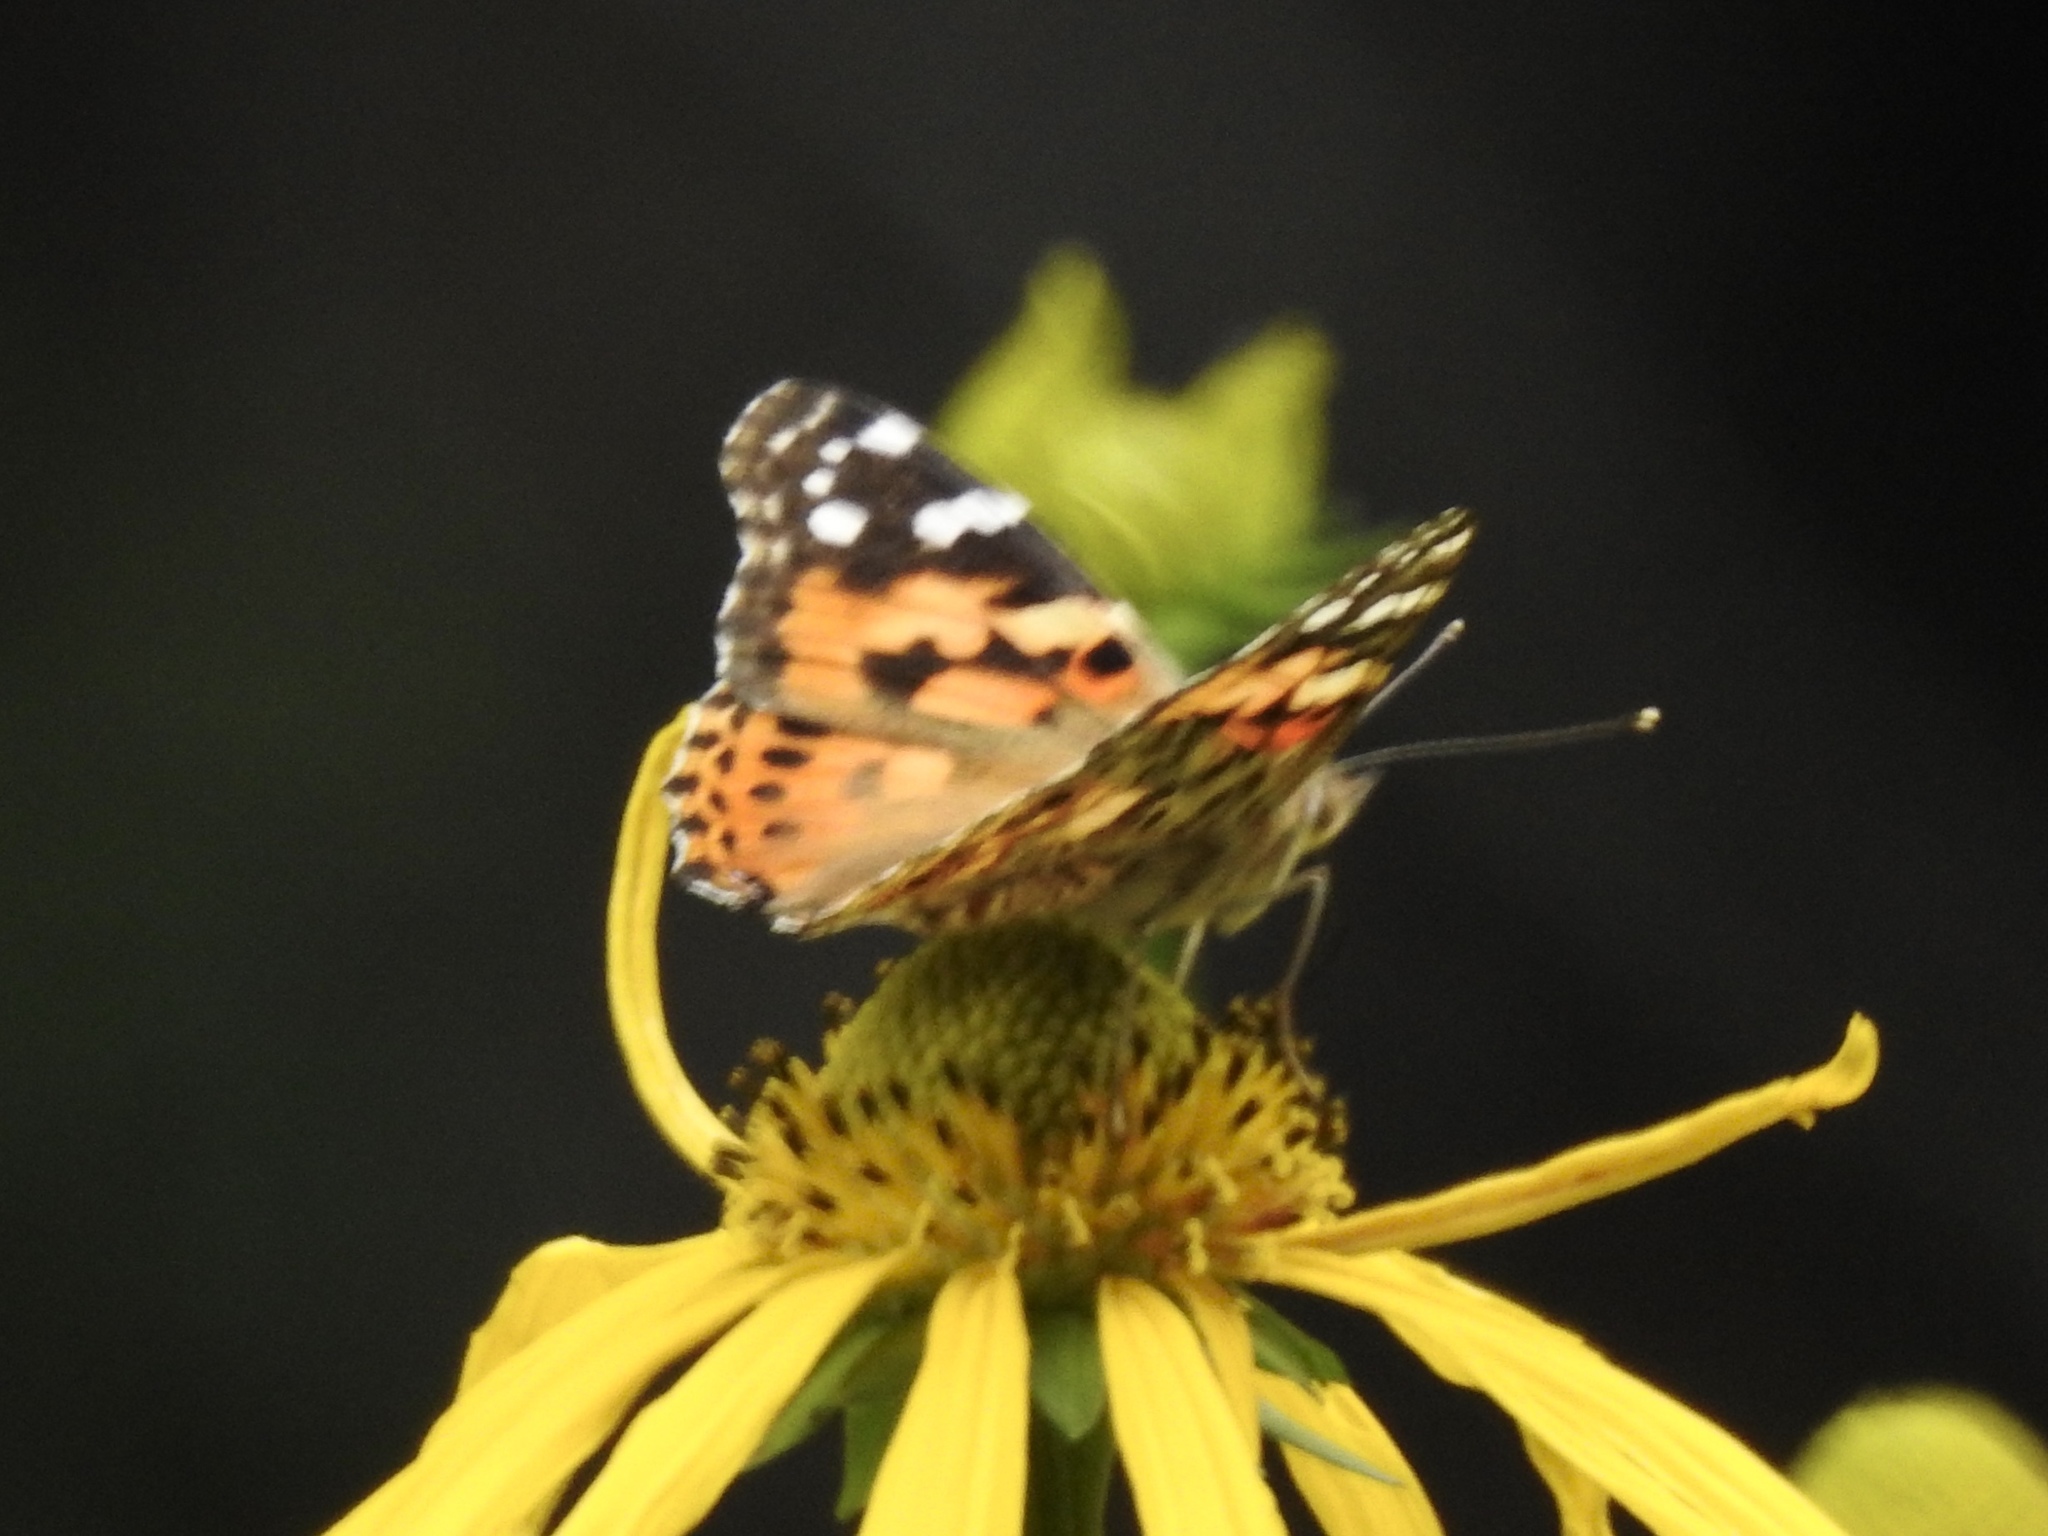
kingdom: Animalia
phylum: Arthropoda
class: Insecta
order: Lepidoptera
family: Nymphalidae
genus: Vanessa
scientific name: Vanessa cardui
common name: Painted lady
